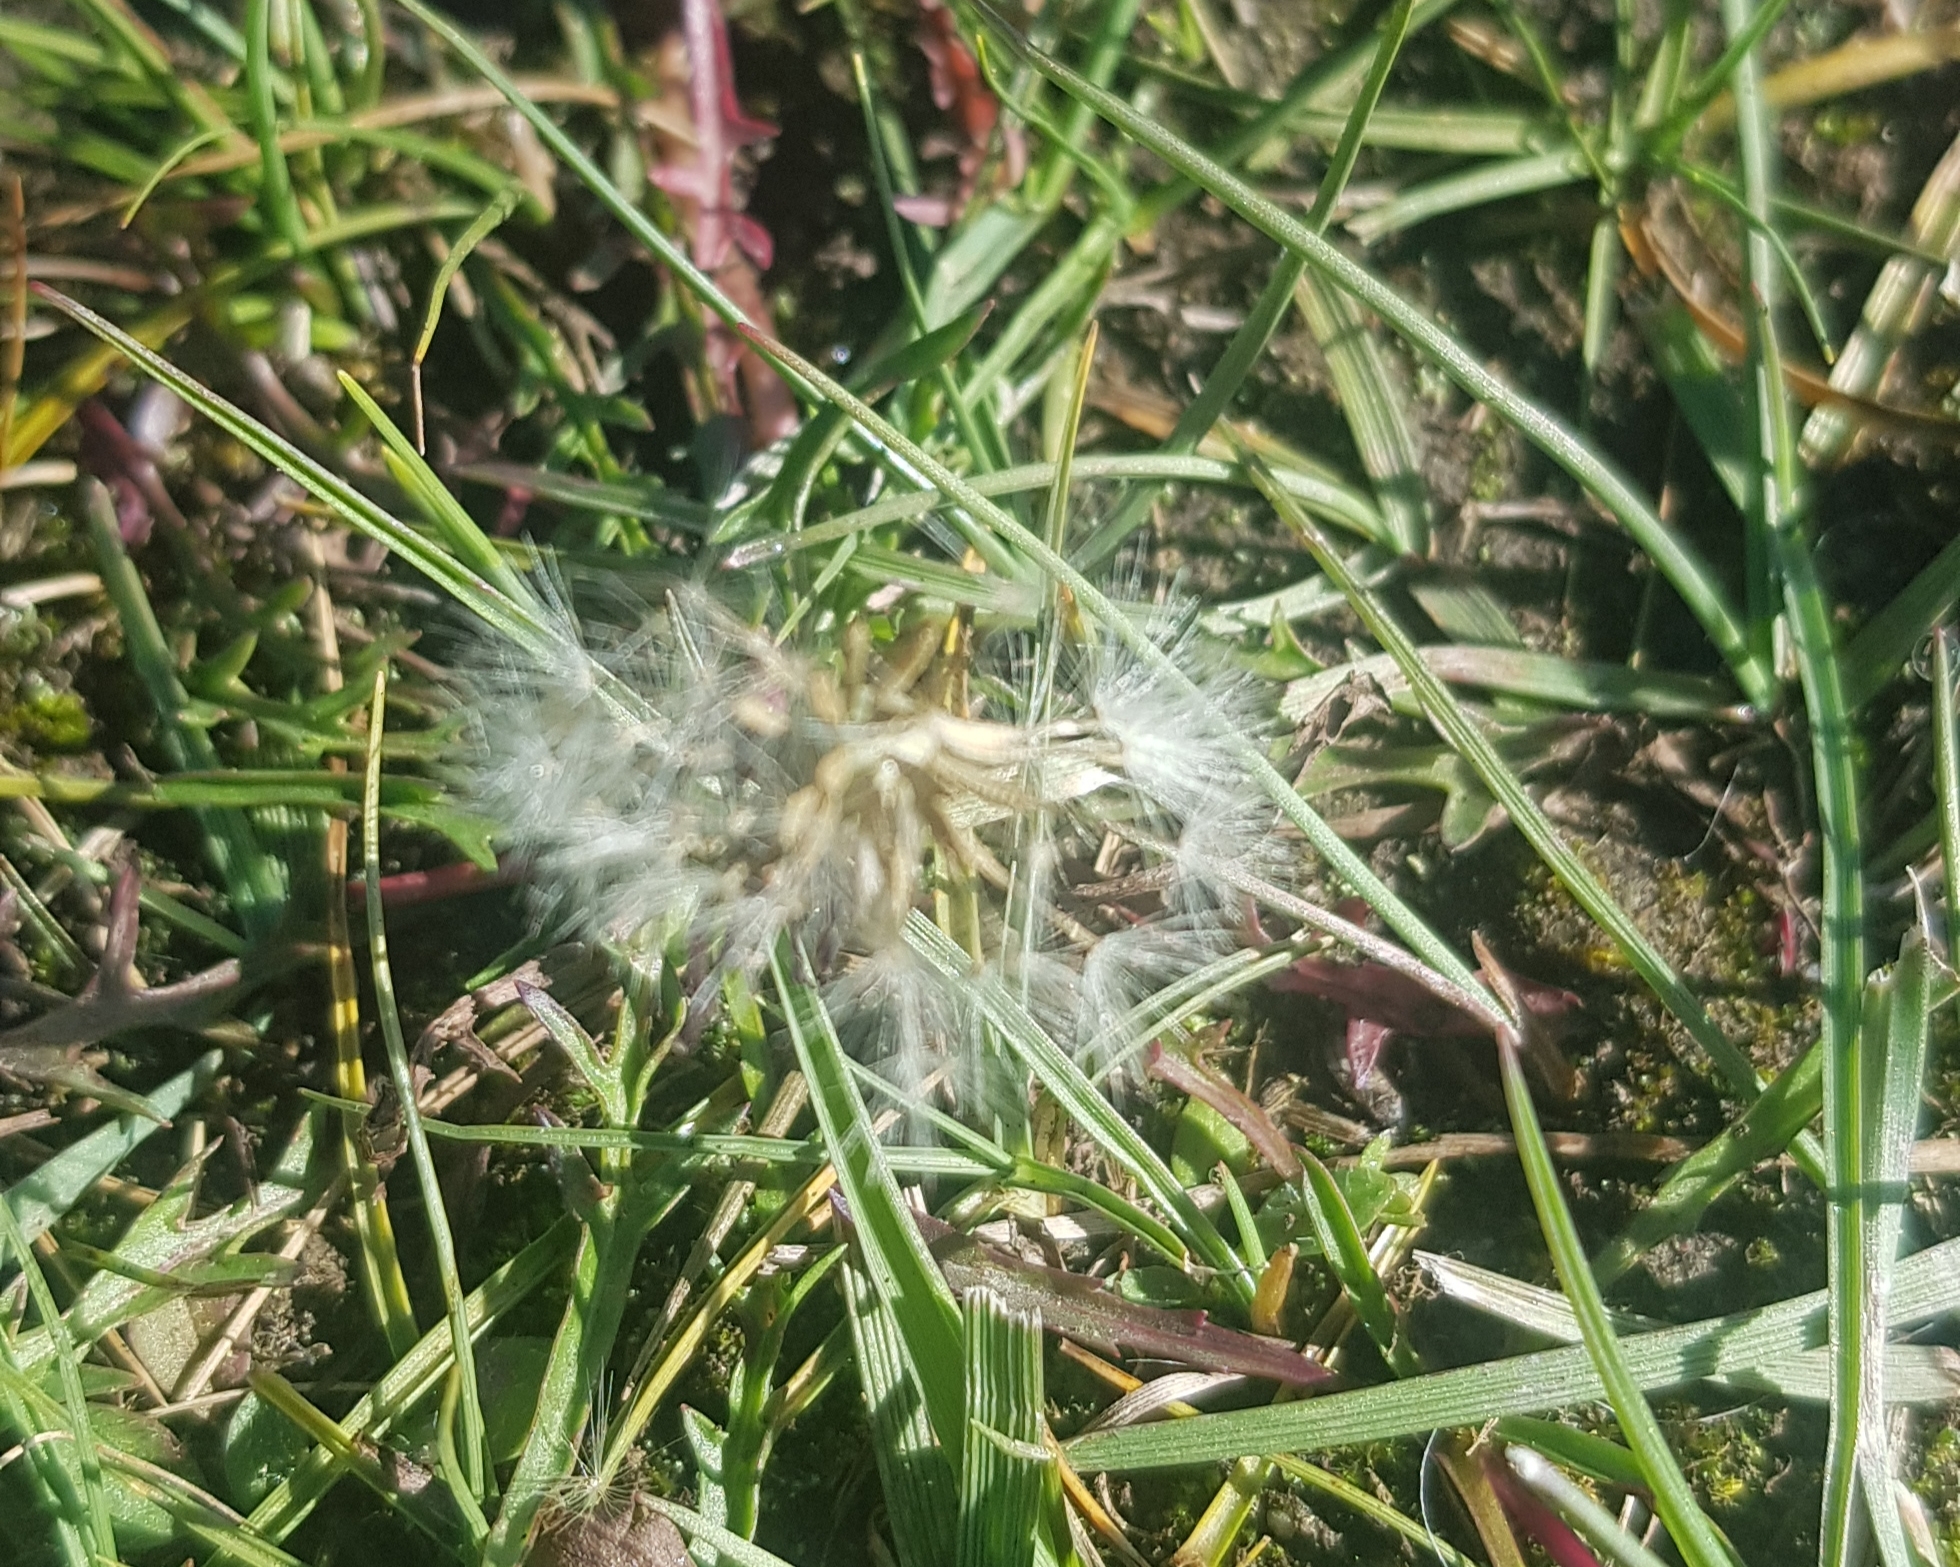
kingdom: Plantae
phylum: Tracheophyta
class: Magnoliopsida
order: Asterales
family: Asteraceae
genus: Taraxacum
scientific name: Taraxacum officinale
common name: Common dandelion
